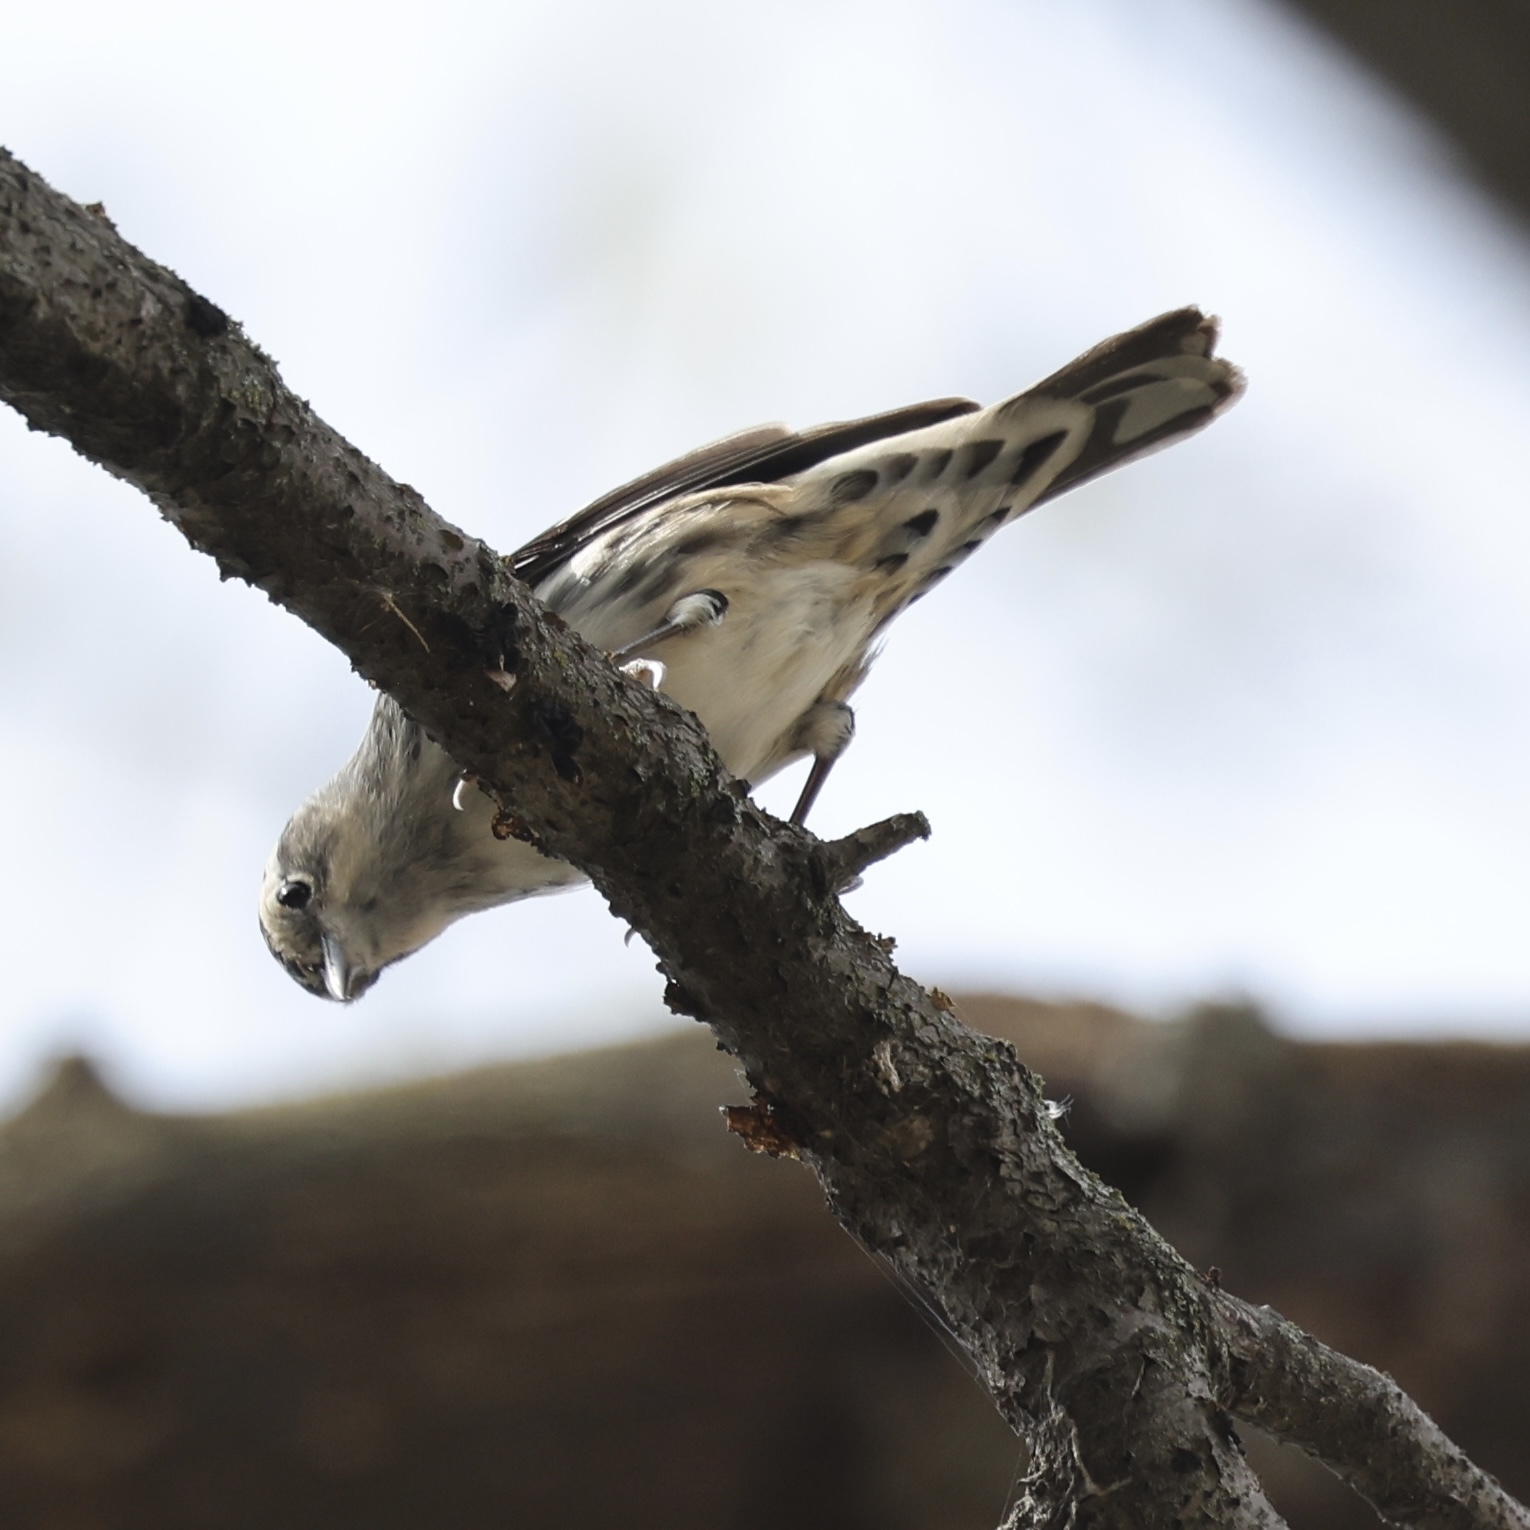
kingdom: Animalia
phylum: Chordata
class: Aves
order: Passeriformes
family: Parulidae
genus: Mniotilta
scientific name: Mniotilta varia
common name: Black-and-white warbler
